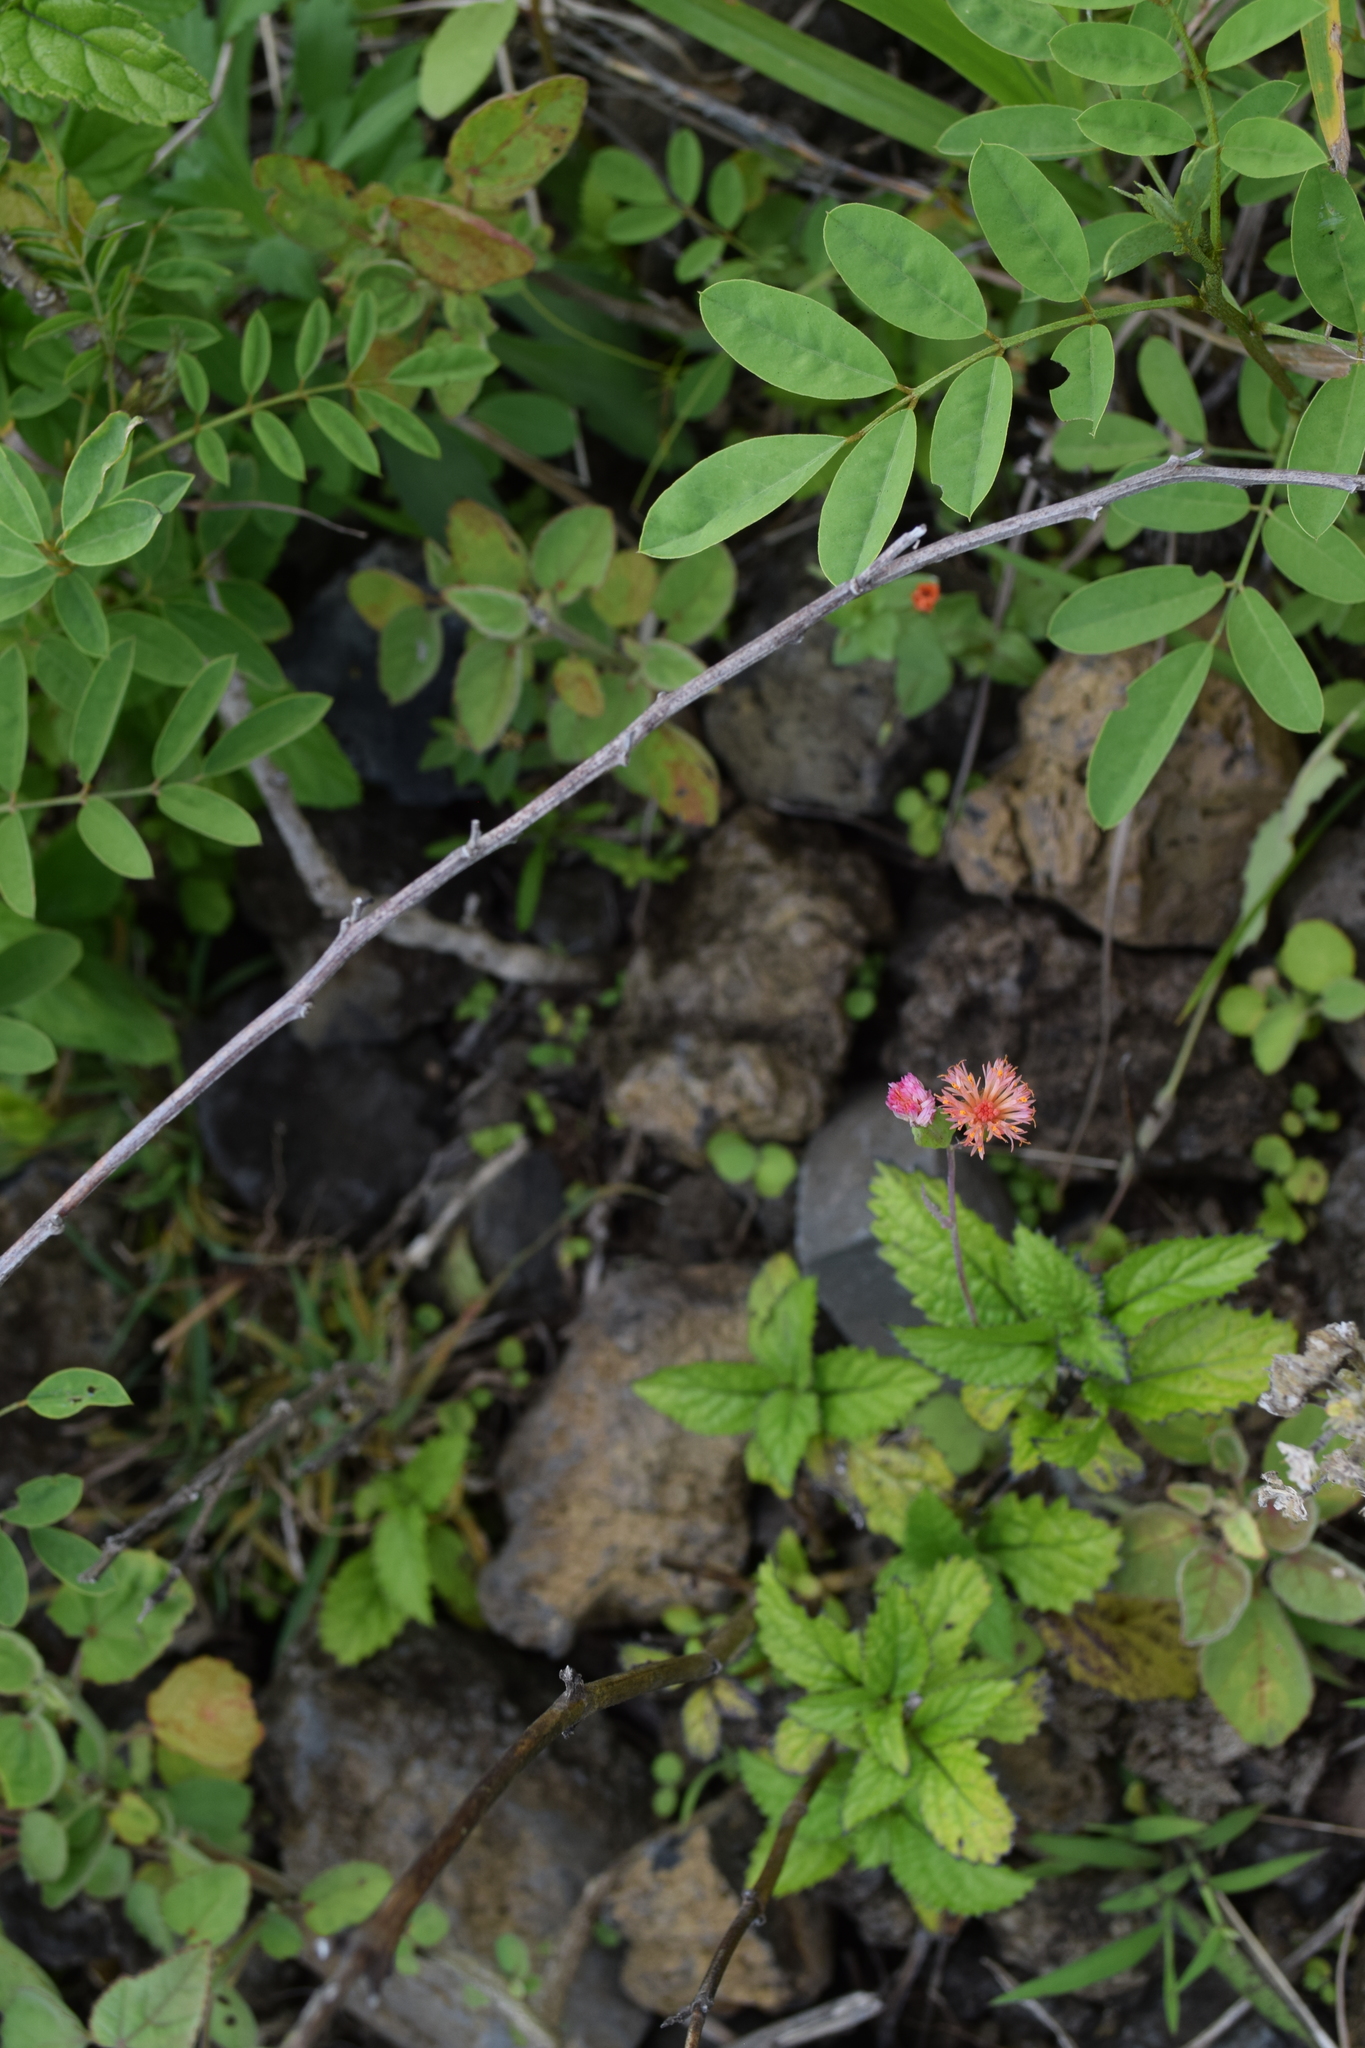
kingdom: Plantae
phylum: Tracheophyta
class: Magnoliopsida
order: Asterales
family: Asteraceae
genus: Emilia
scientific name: Emilia fosbergii
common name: Florida tasselflower
